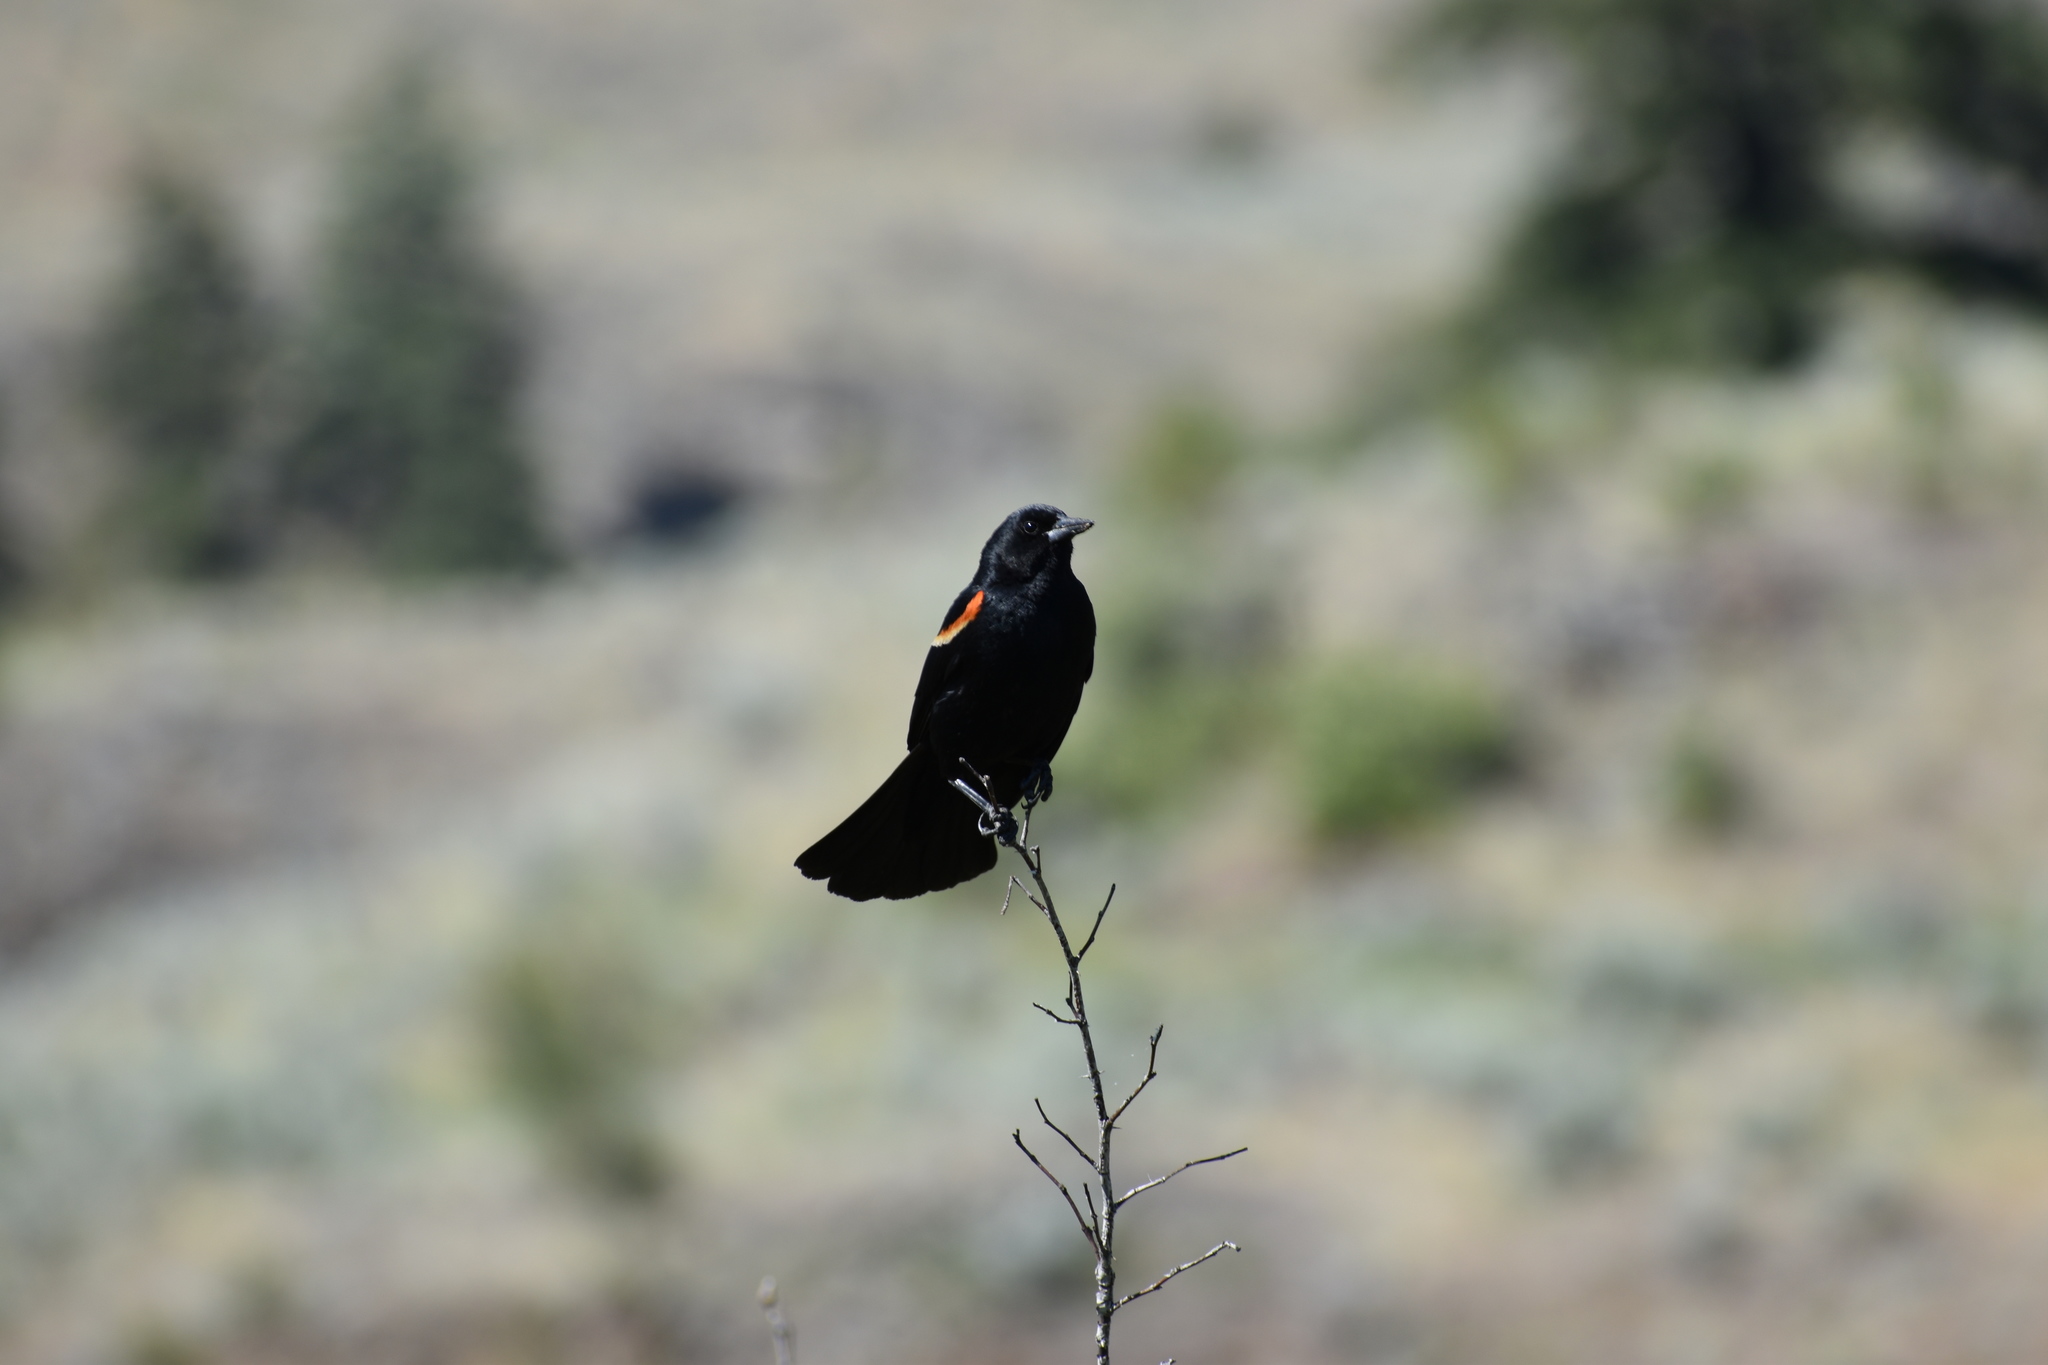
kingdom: Animalia
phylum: Chordata
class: Aves
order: Passeriformes
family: Icteridae
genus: Agelaius
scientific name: Agelaius phoeniceus
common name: Red-winged blackbird
